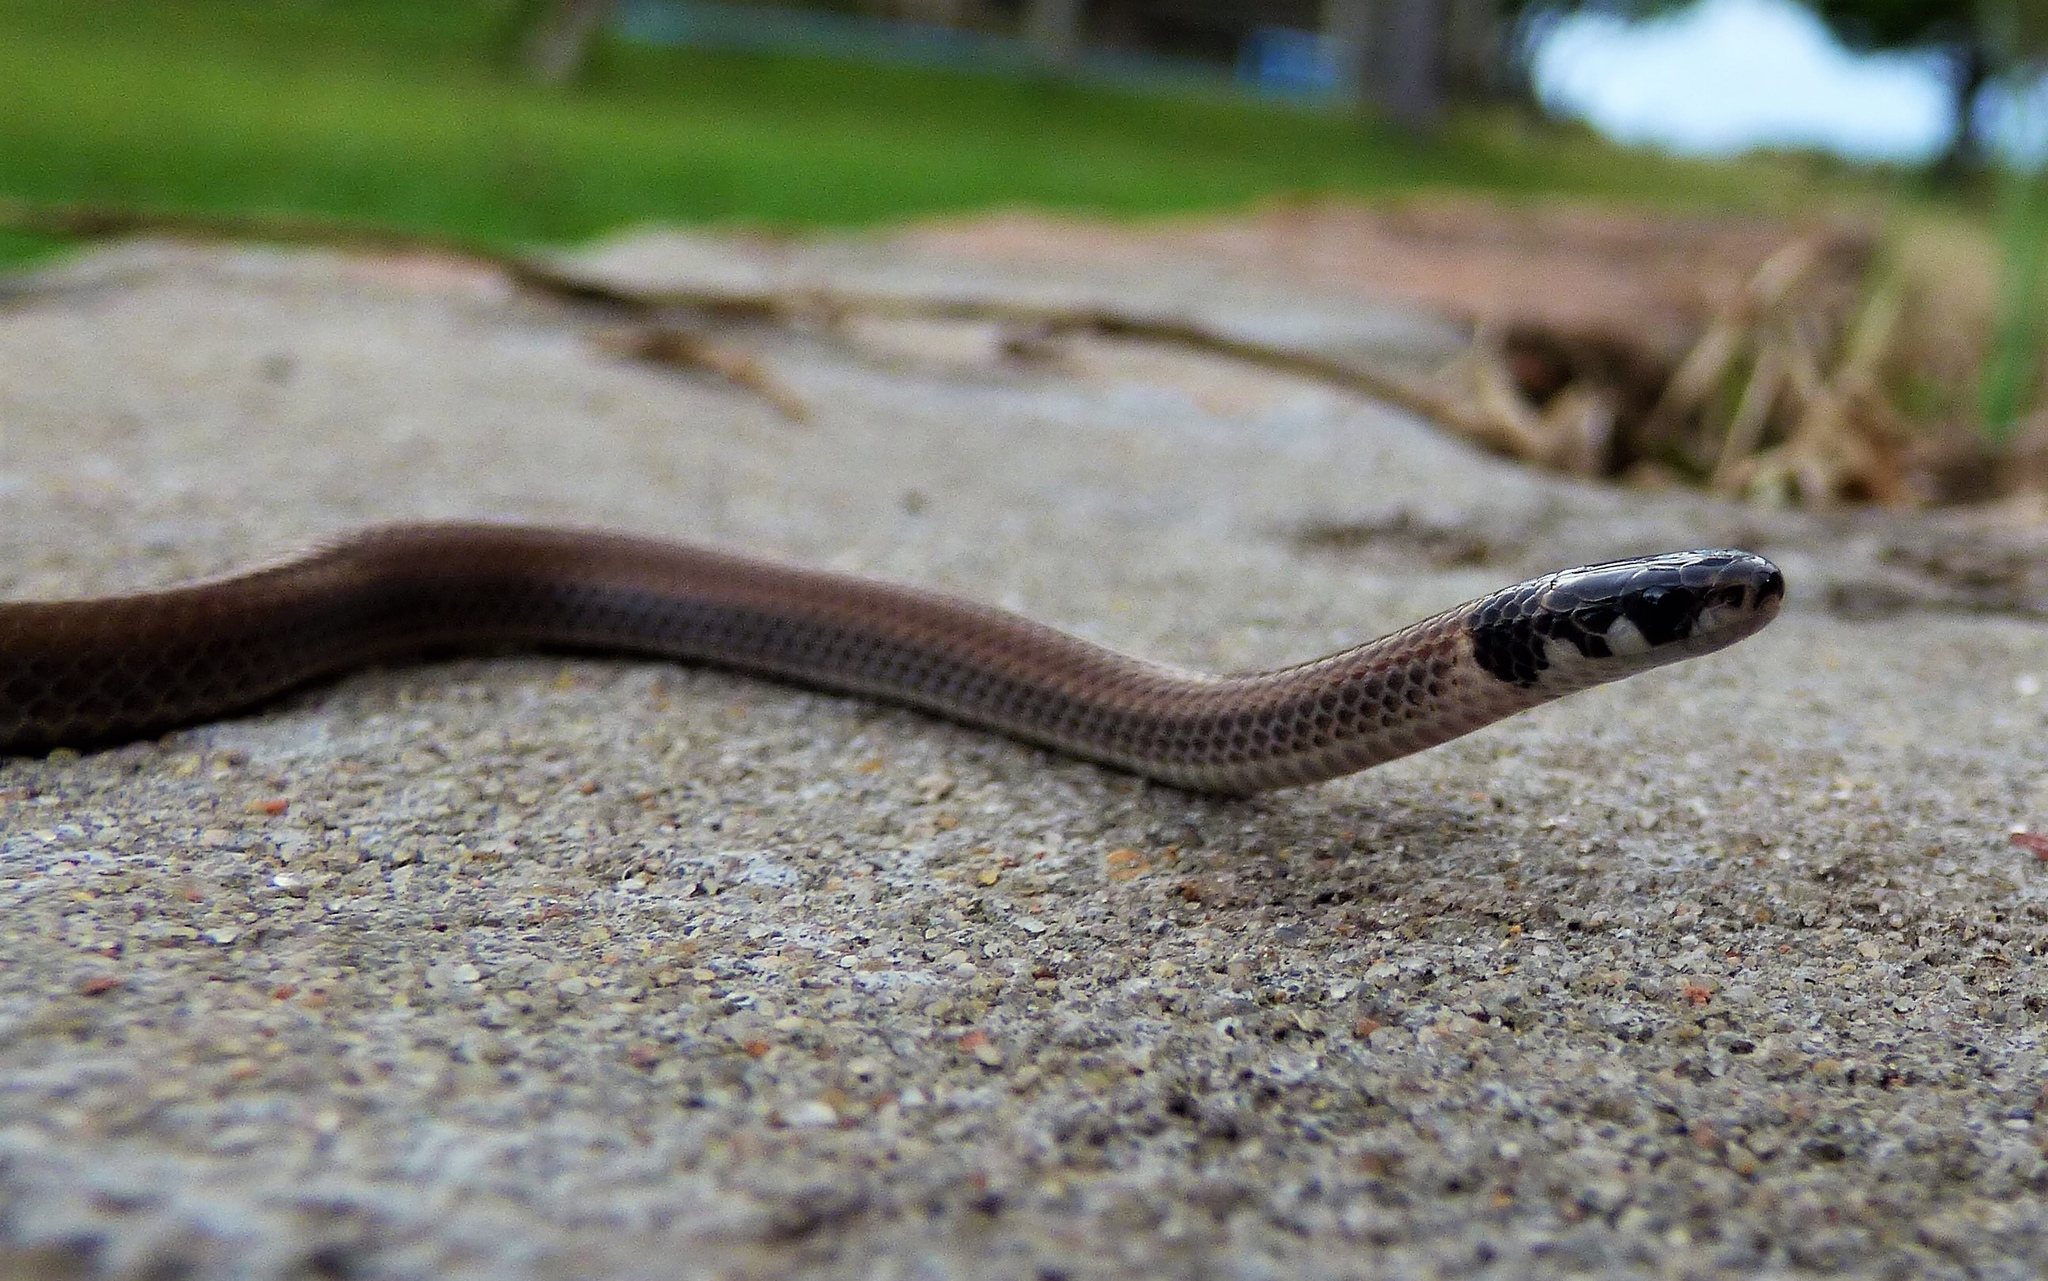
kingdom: Animalia
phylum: Chordata
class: Squamata
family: Colubridae
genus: Tantilla
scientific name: Tantilla melanocephala
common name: Black-headed snake
